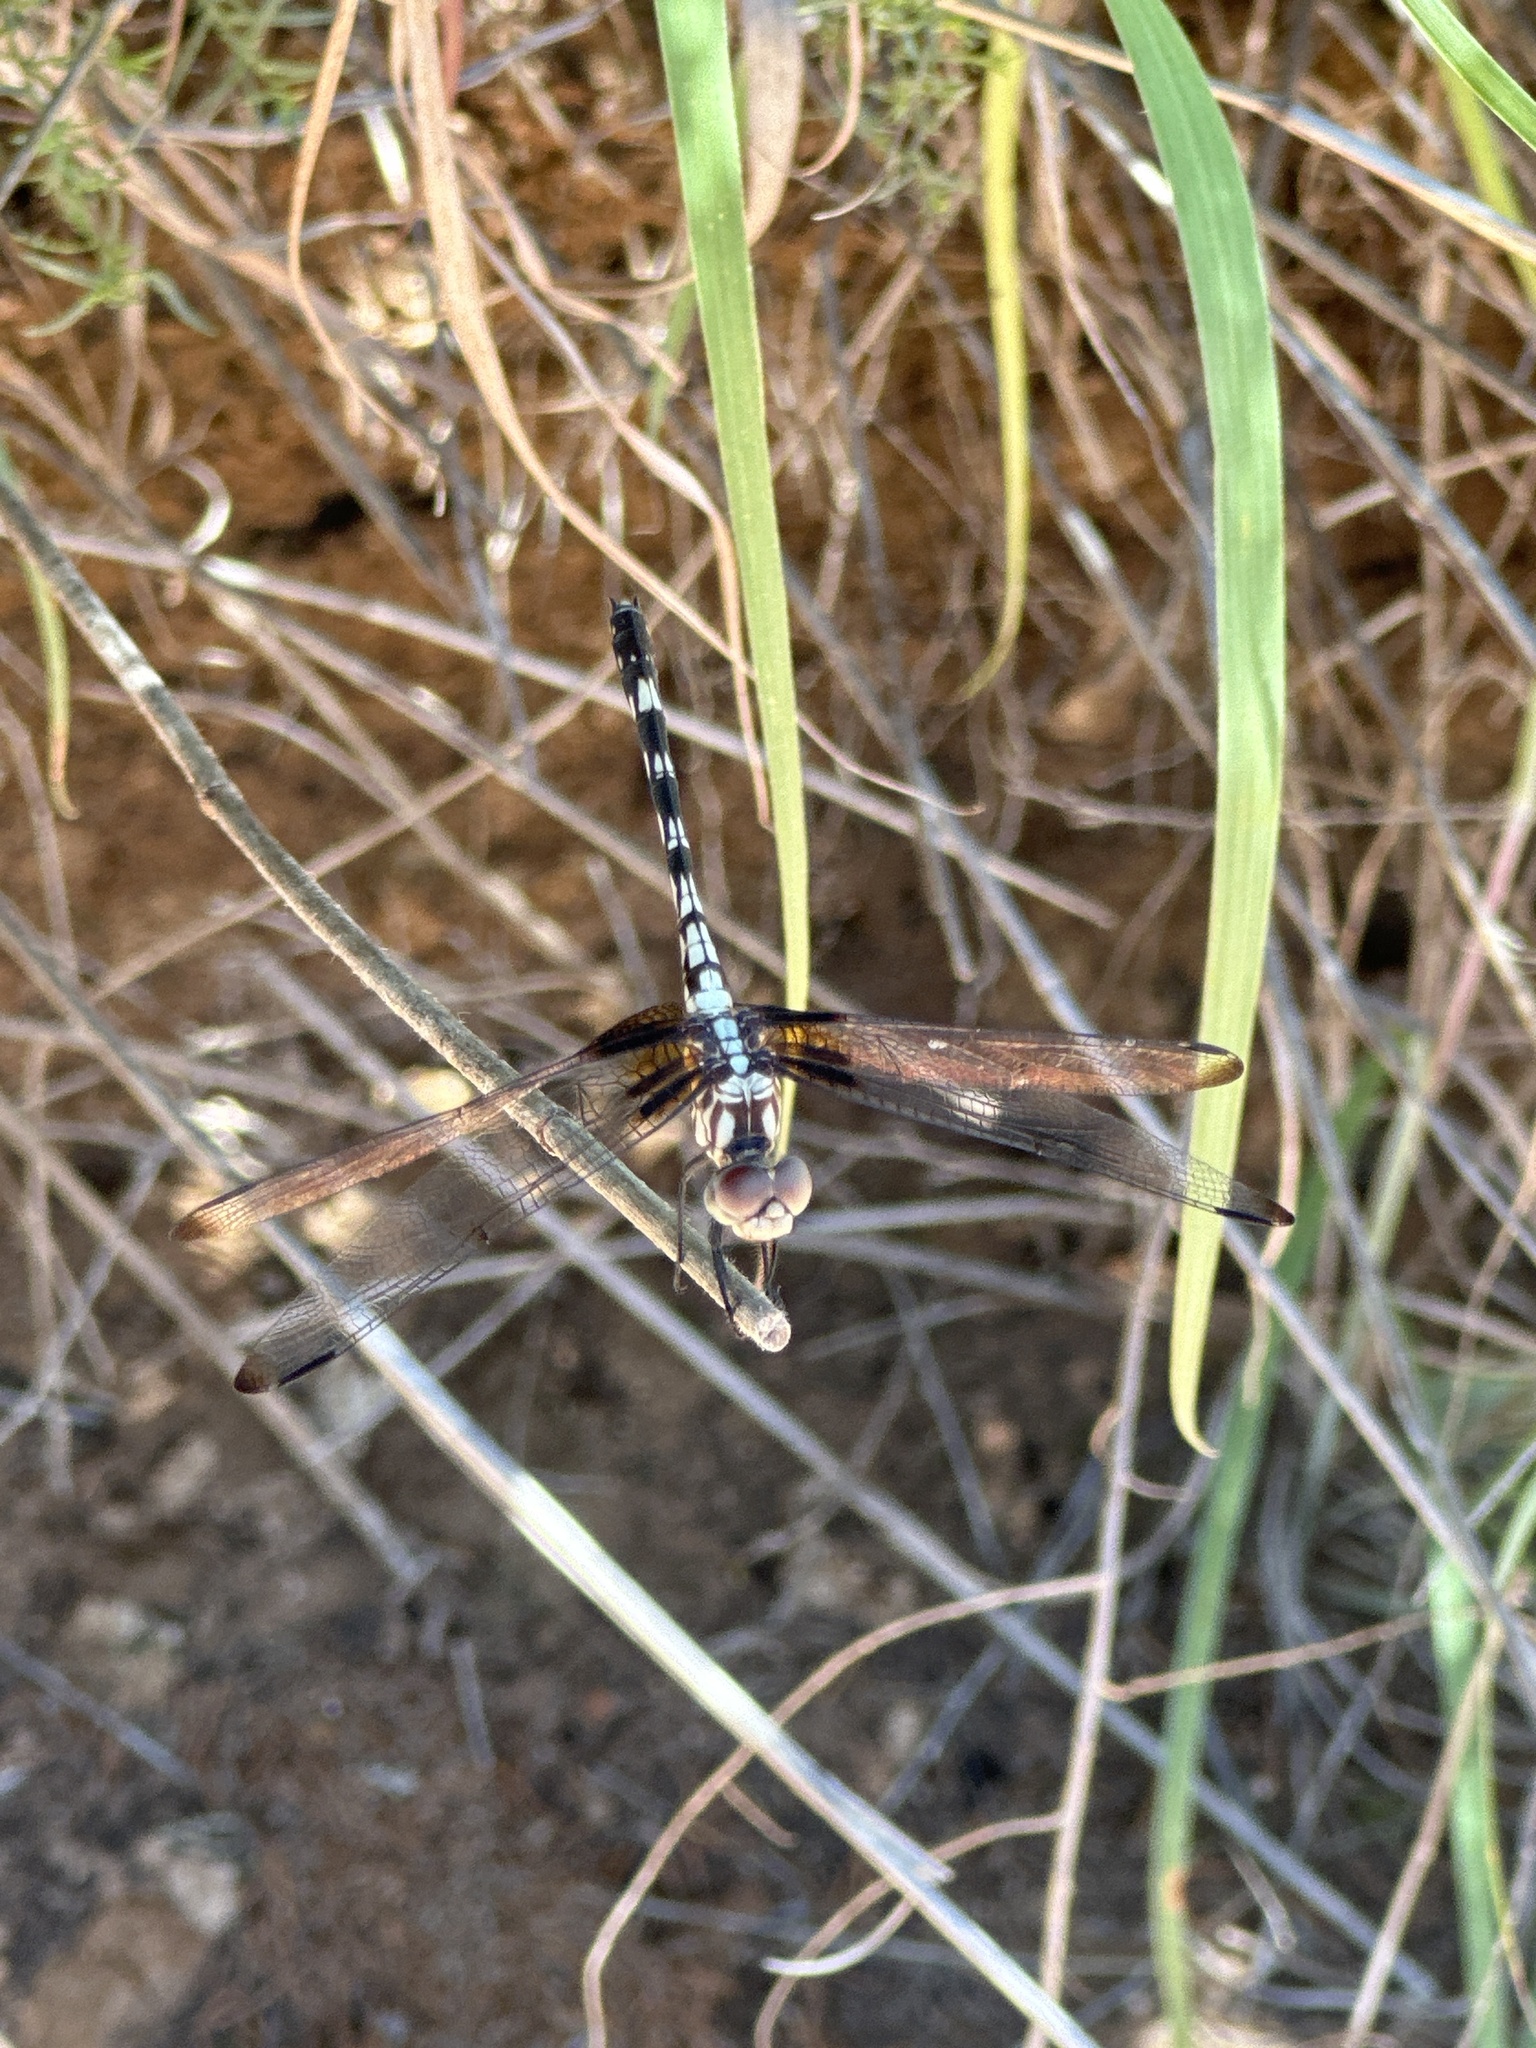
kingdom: Animalia
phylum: Arthropoda
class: Insecta
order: Odonata
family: Libellulidae
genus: Dythemis
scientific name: Dythemis fugax
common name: Checkered setwing
